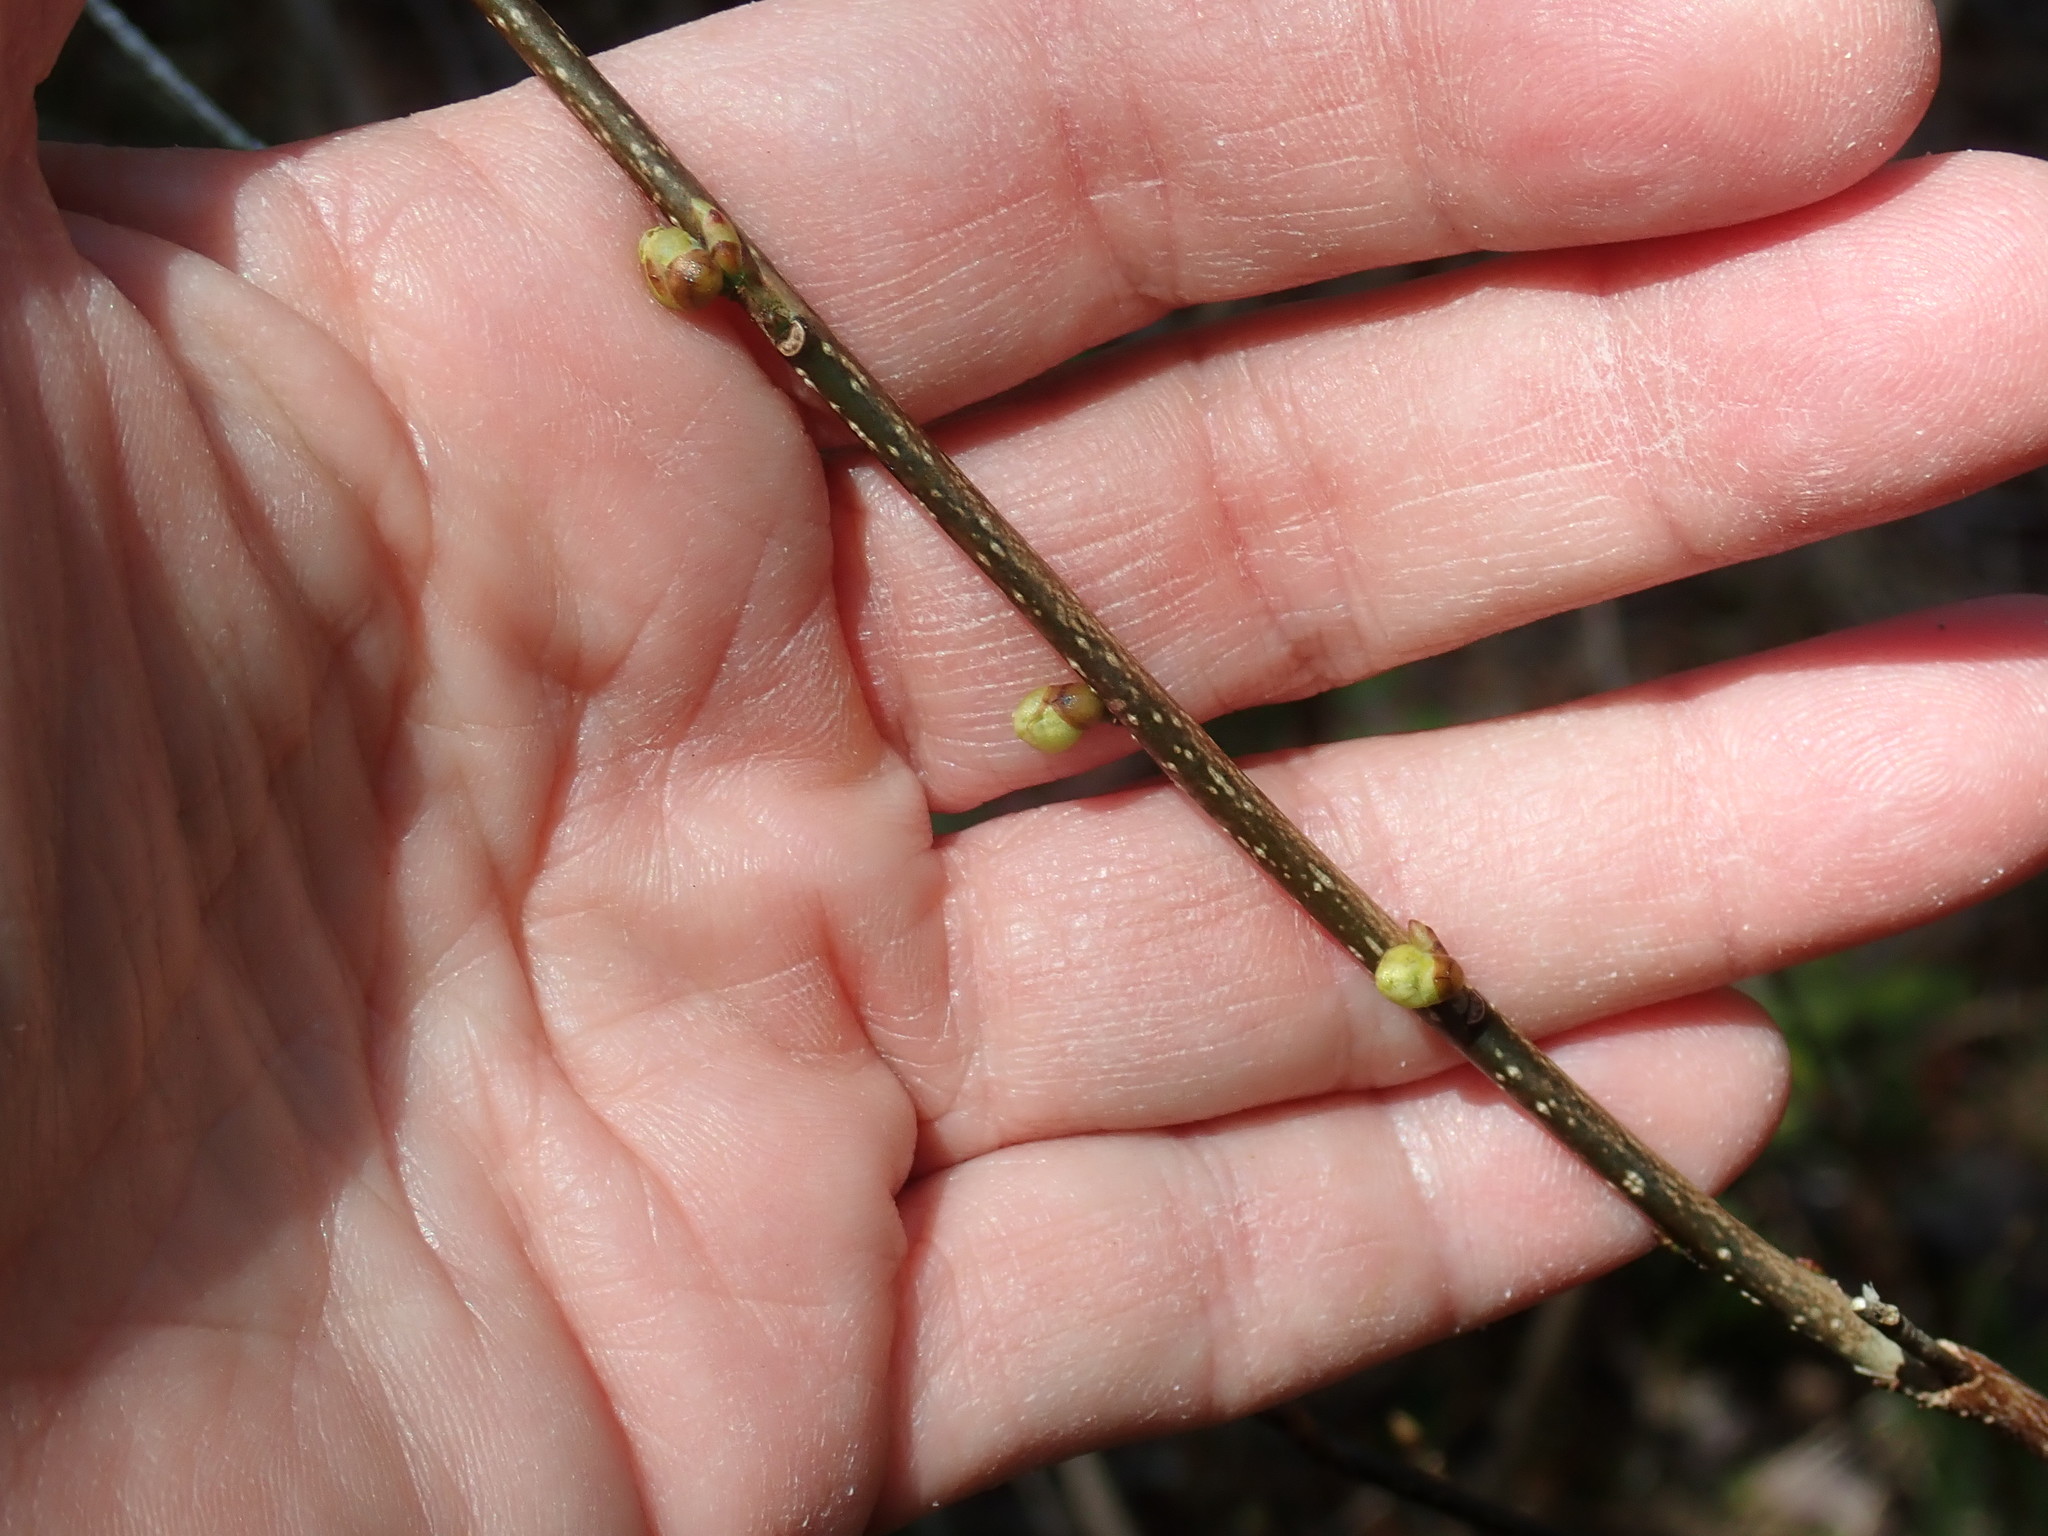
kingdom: Plantae
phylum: Tracheophyta
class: Magnoliopsida
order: Laurales
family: Lauraceae
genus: Lindera
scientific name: Lindera benzoin
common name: Spicebush
